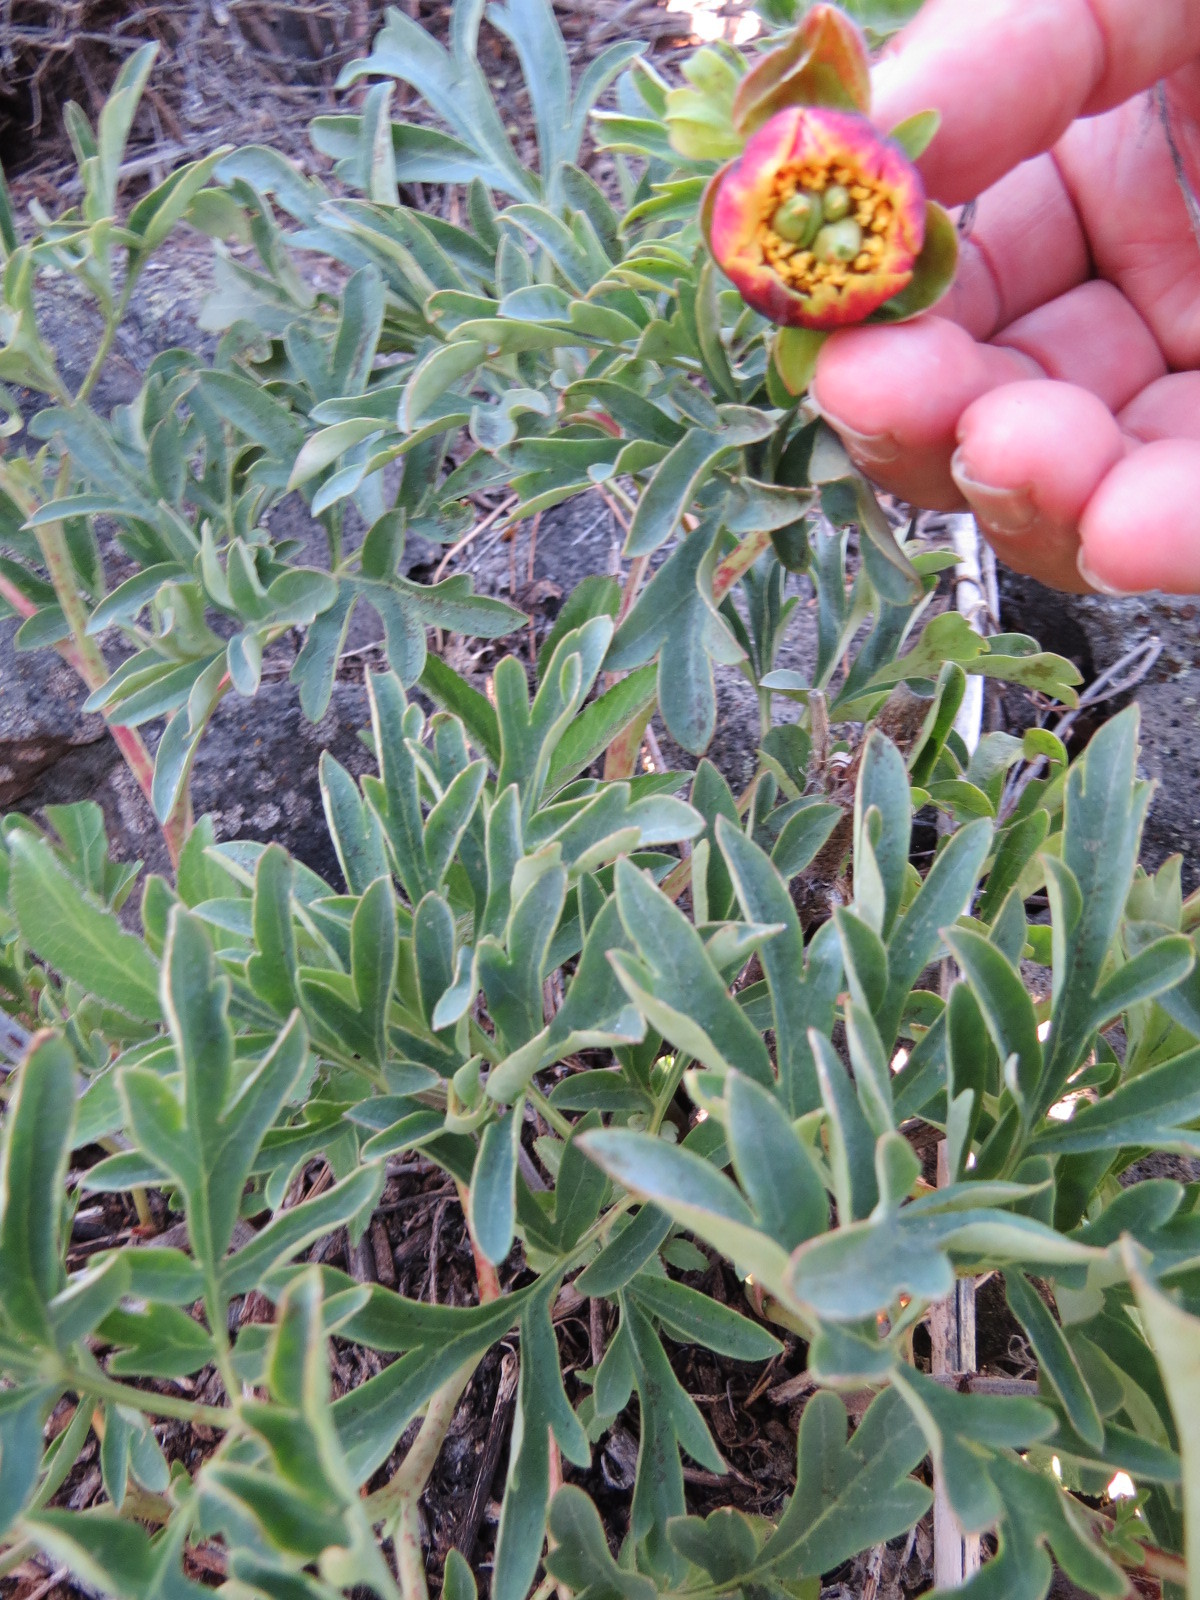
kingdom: Plantae
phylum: Tracheophyta
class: Magnoliopsida
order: Saxifragales
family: Paeoniaceae
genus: Paeonia
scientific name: Paeonia brownii
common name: Brown's peony
